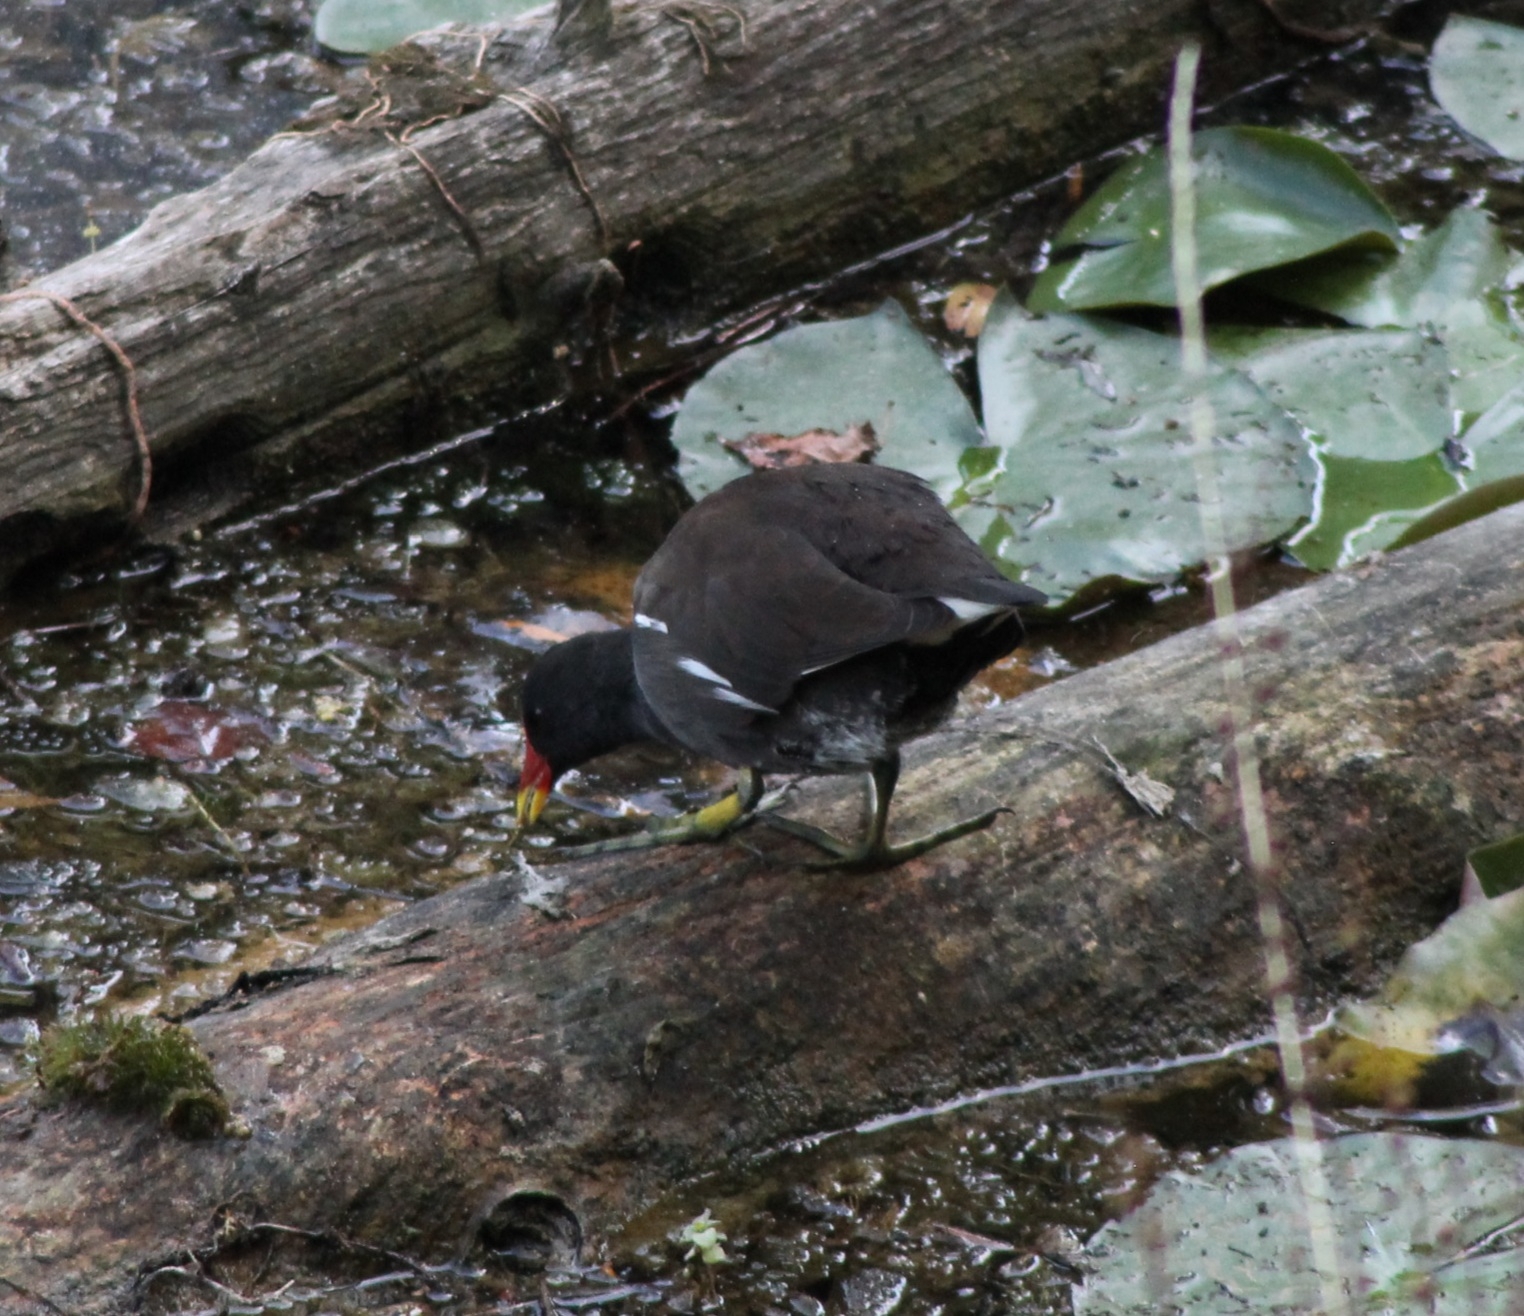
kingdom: Animalia
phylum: Chordata
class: Aves
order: Gruiformes
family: Rallidae
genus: Gallinula
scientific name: Gallinula chloropus
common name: Common moorhen
